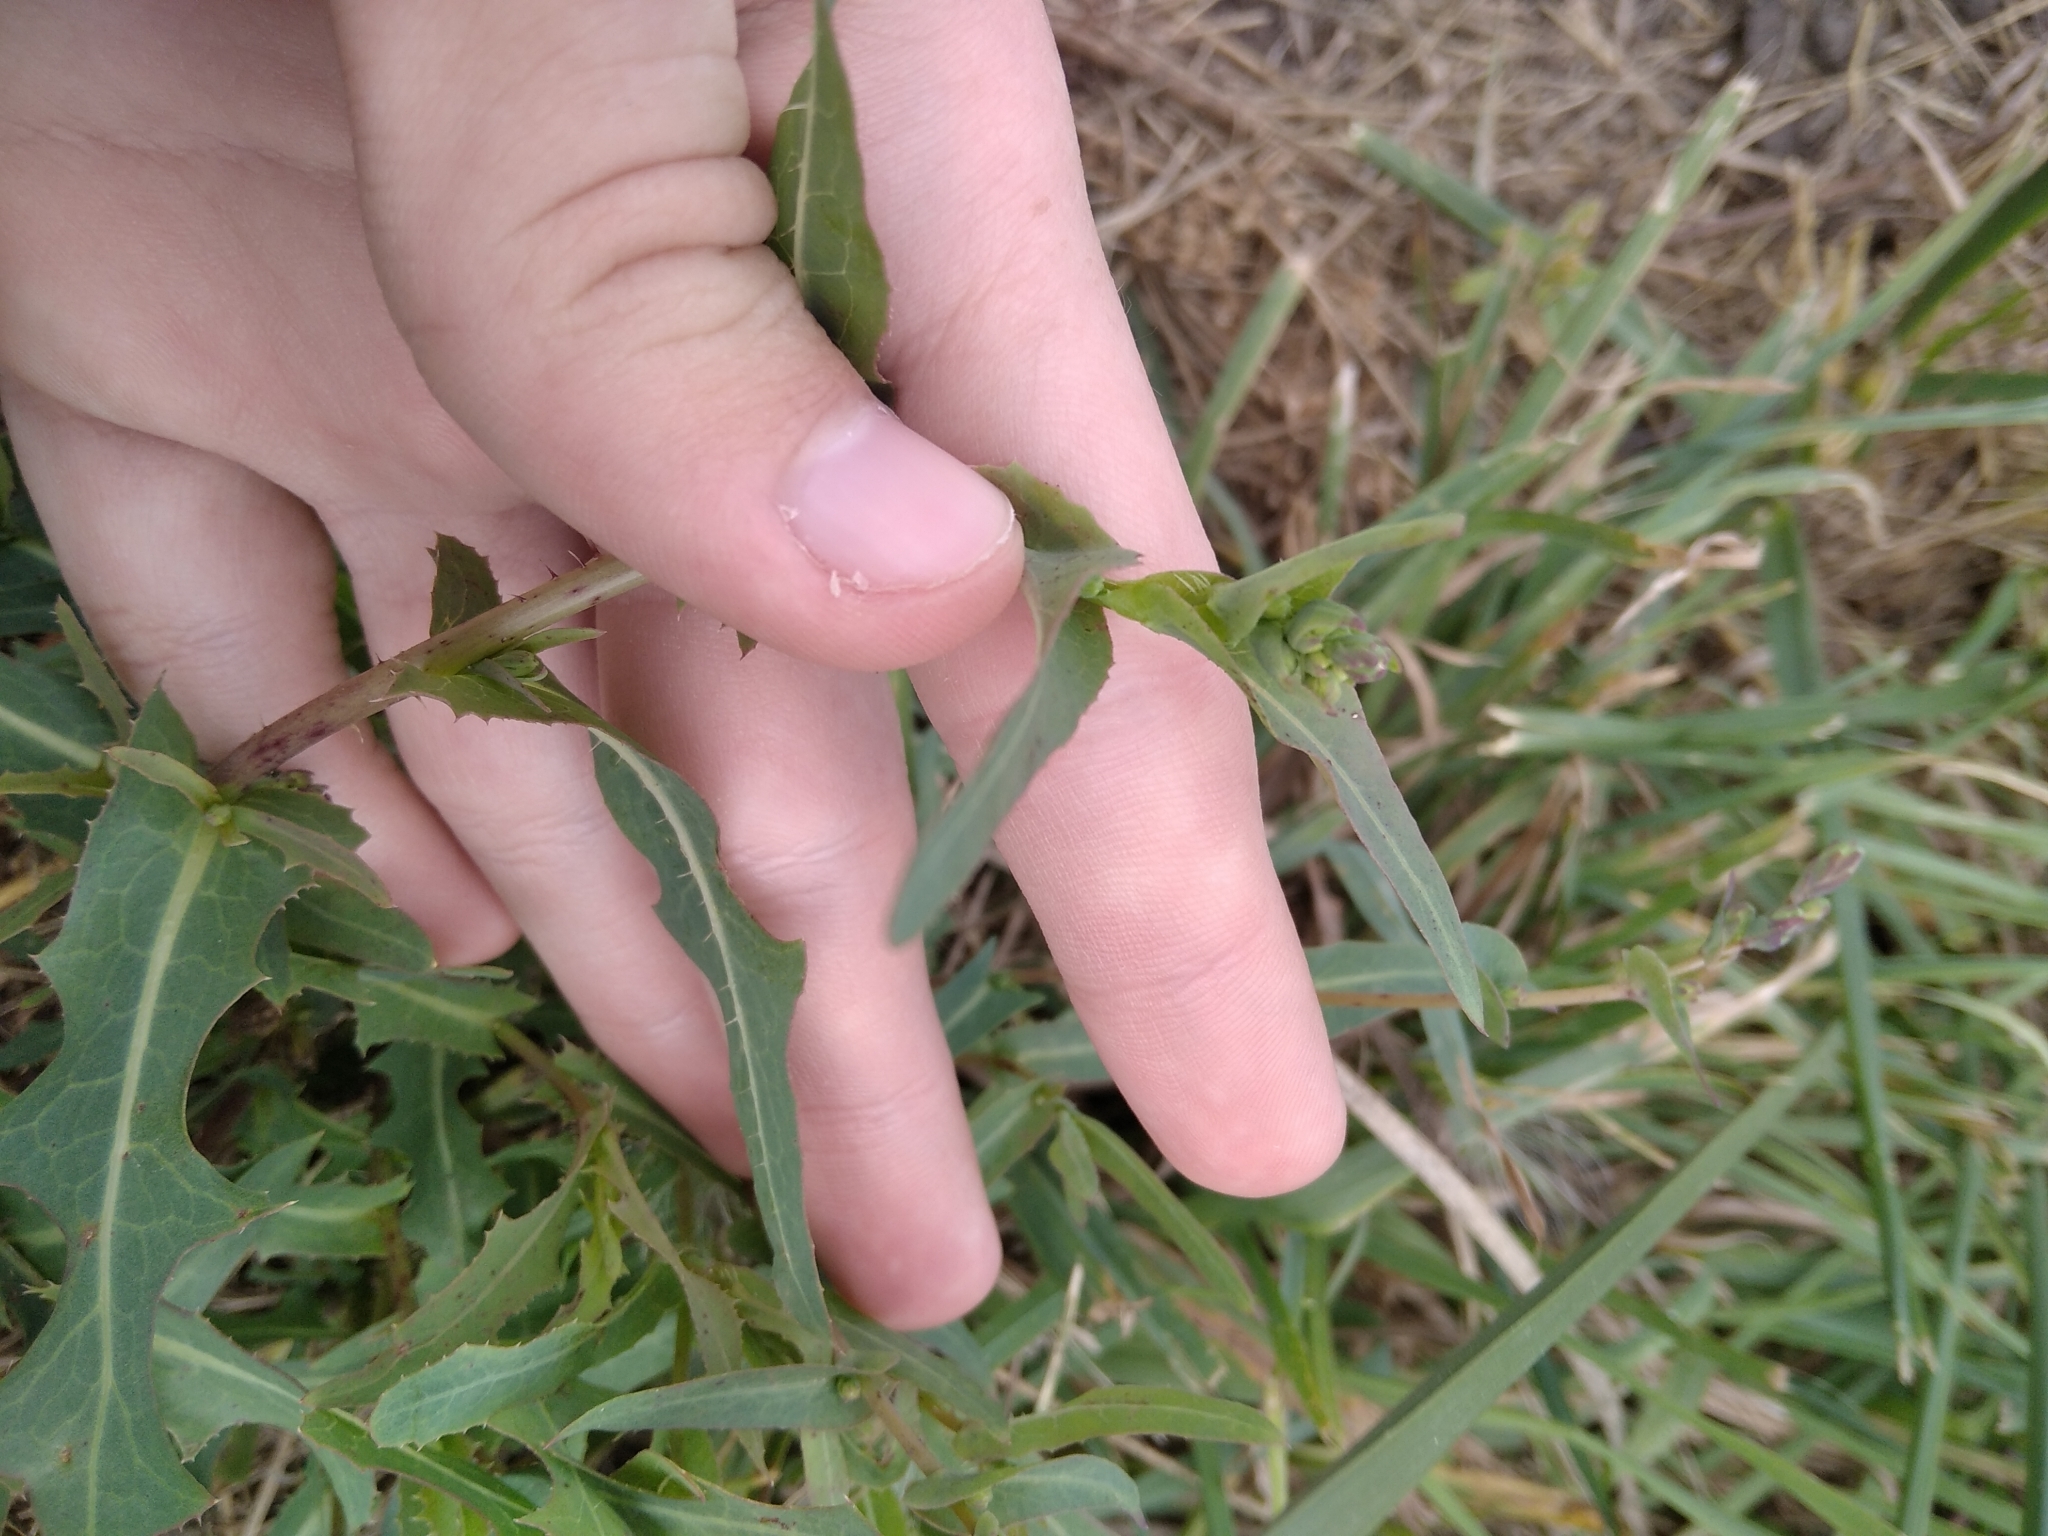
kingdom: Plantae
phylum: Tracheophyta
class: Magnoliopsida
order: Asterales
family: Asteraceae
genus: Lactuca
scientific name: Lactuca serriola
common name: Prickly lettuce
